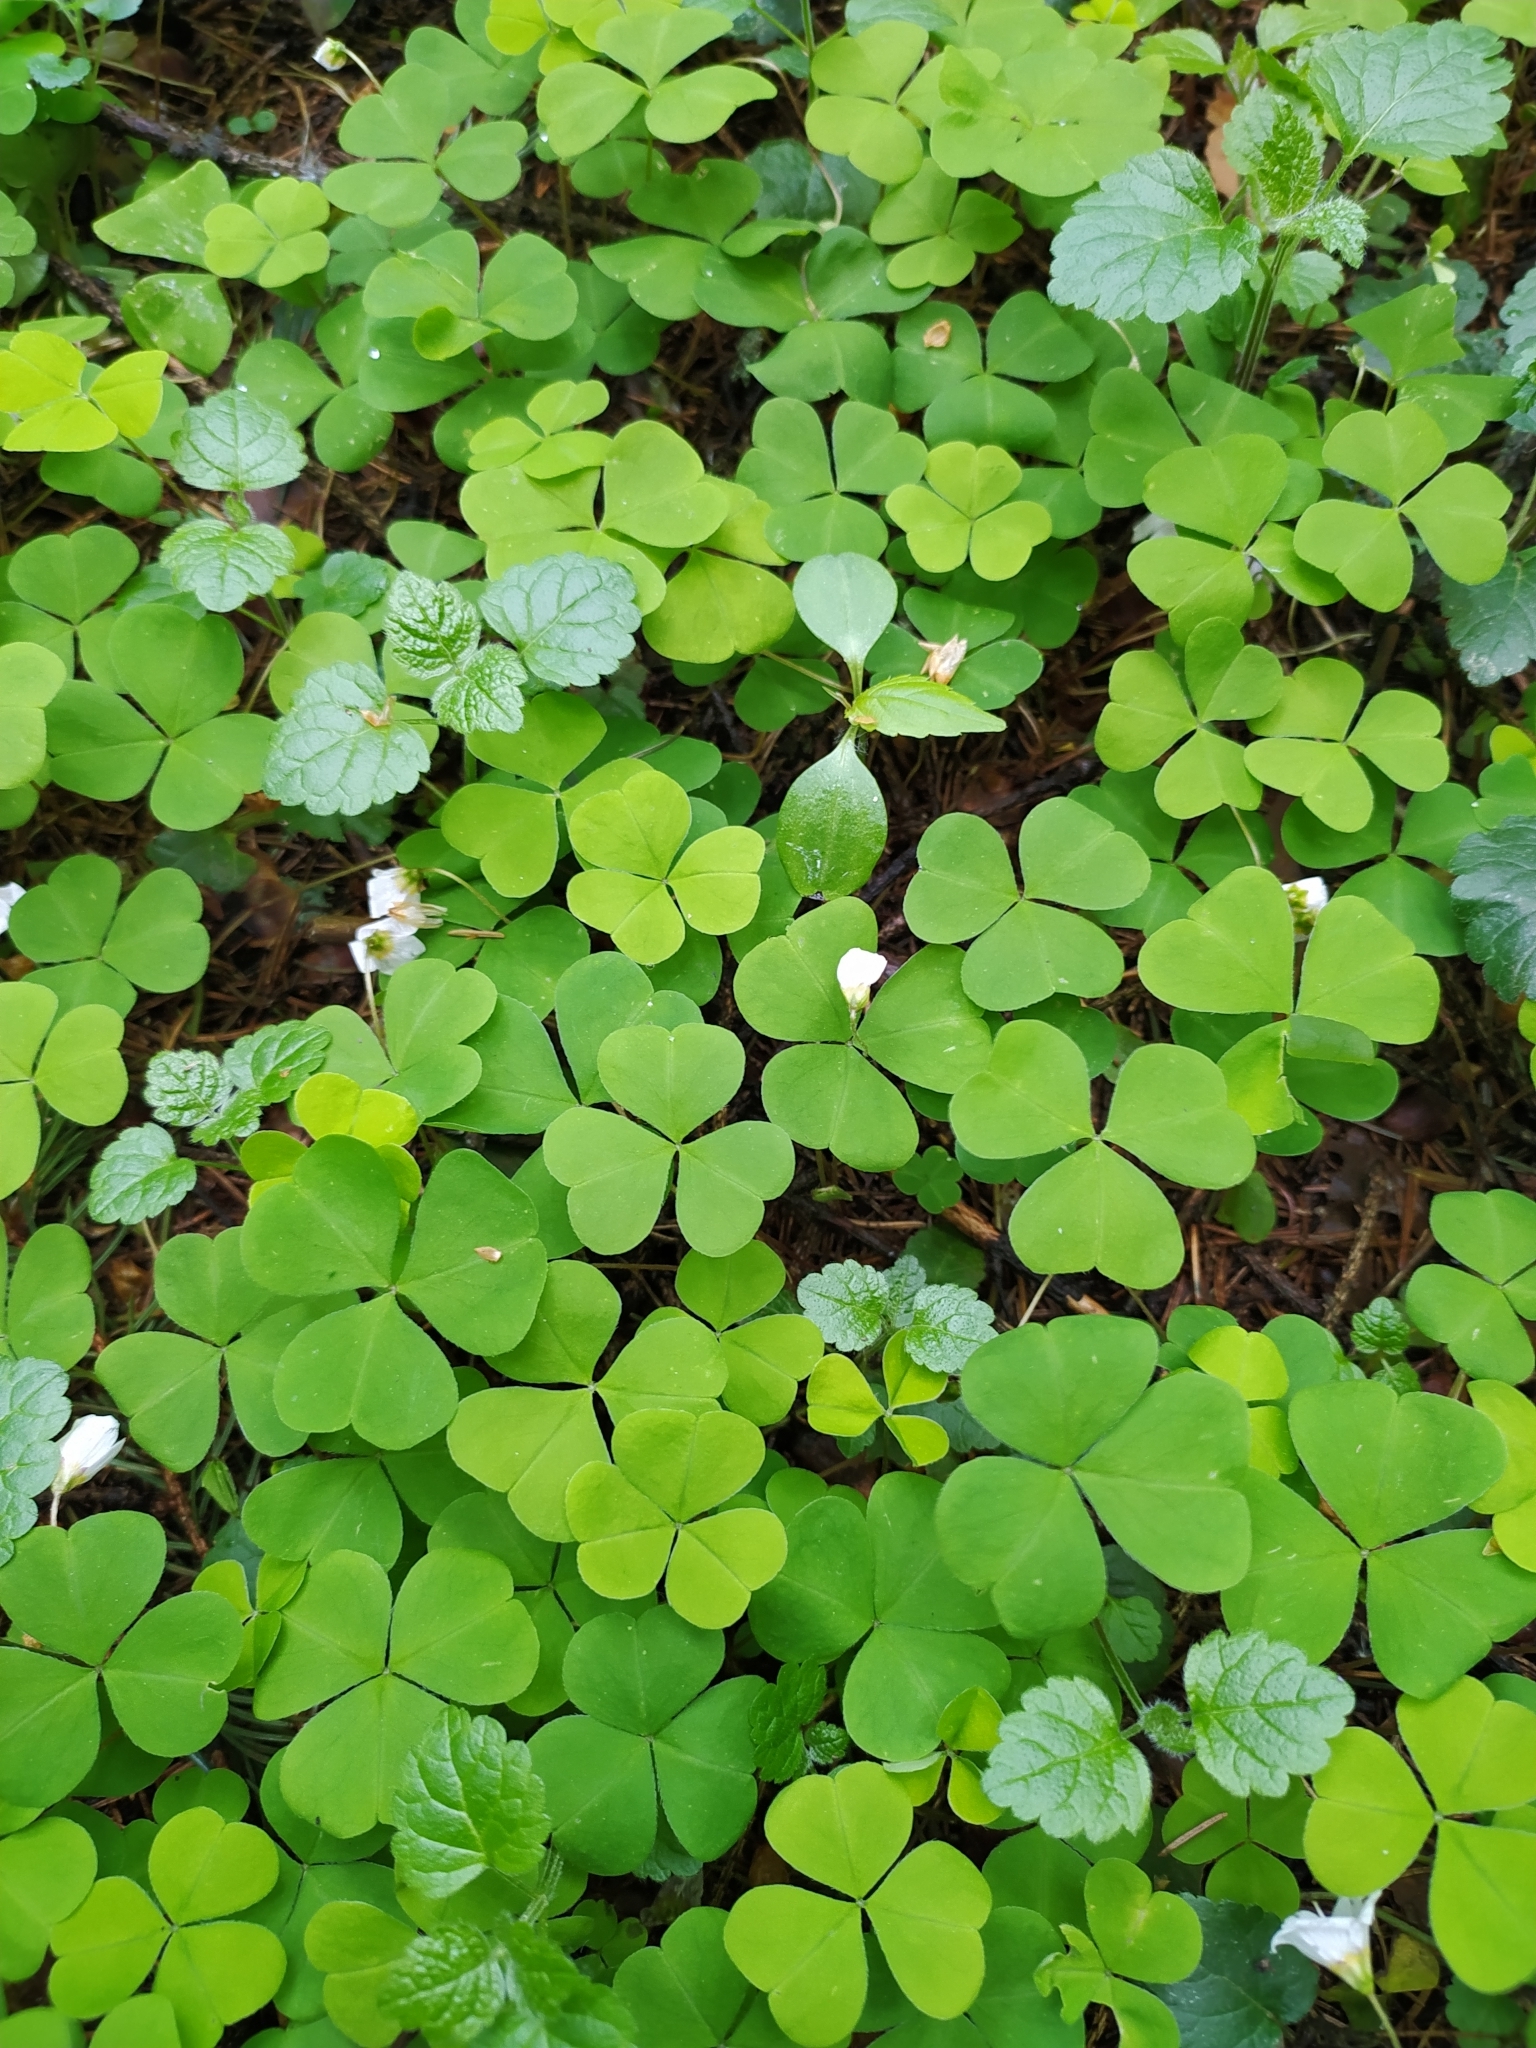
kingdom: Plantae
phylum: Tracheophyta
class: Magnoliopsida
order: Oxalidales
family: Oxalidaceae
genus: Oxalis
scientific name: Oxalis acetosella
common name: Wood-sorrel
